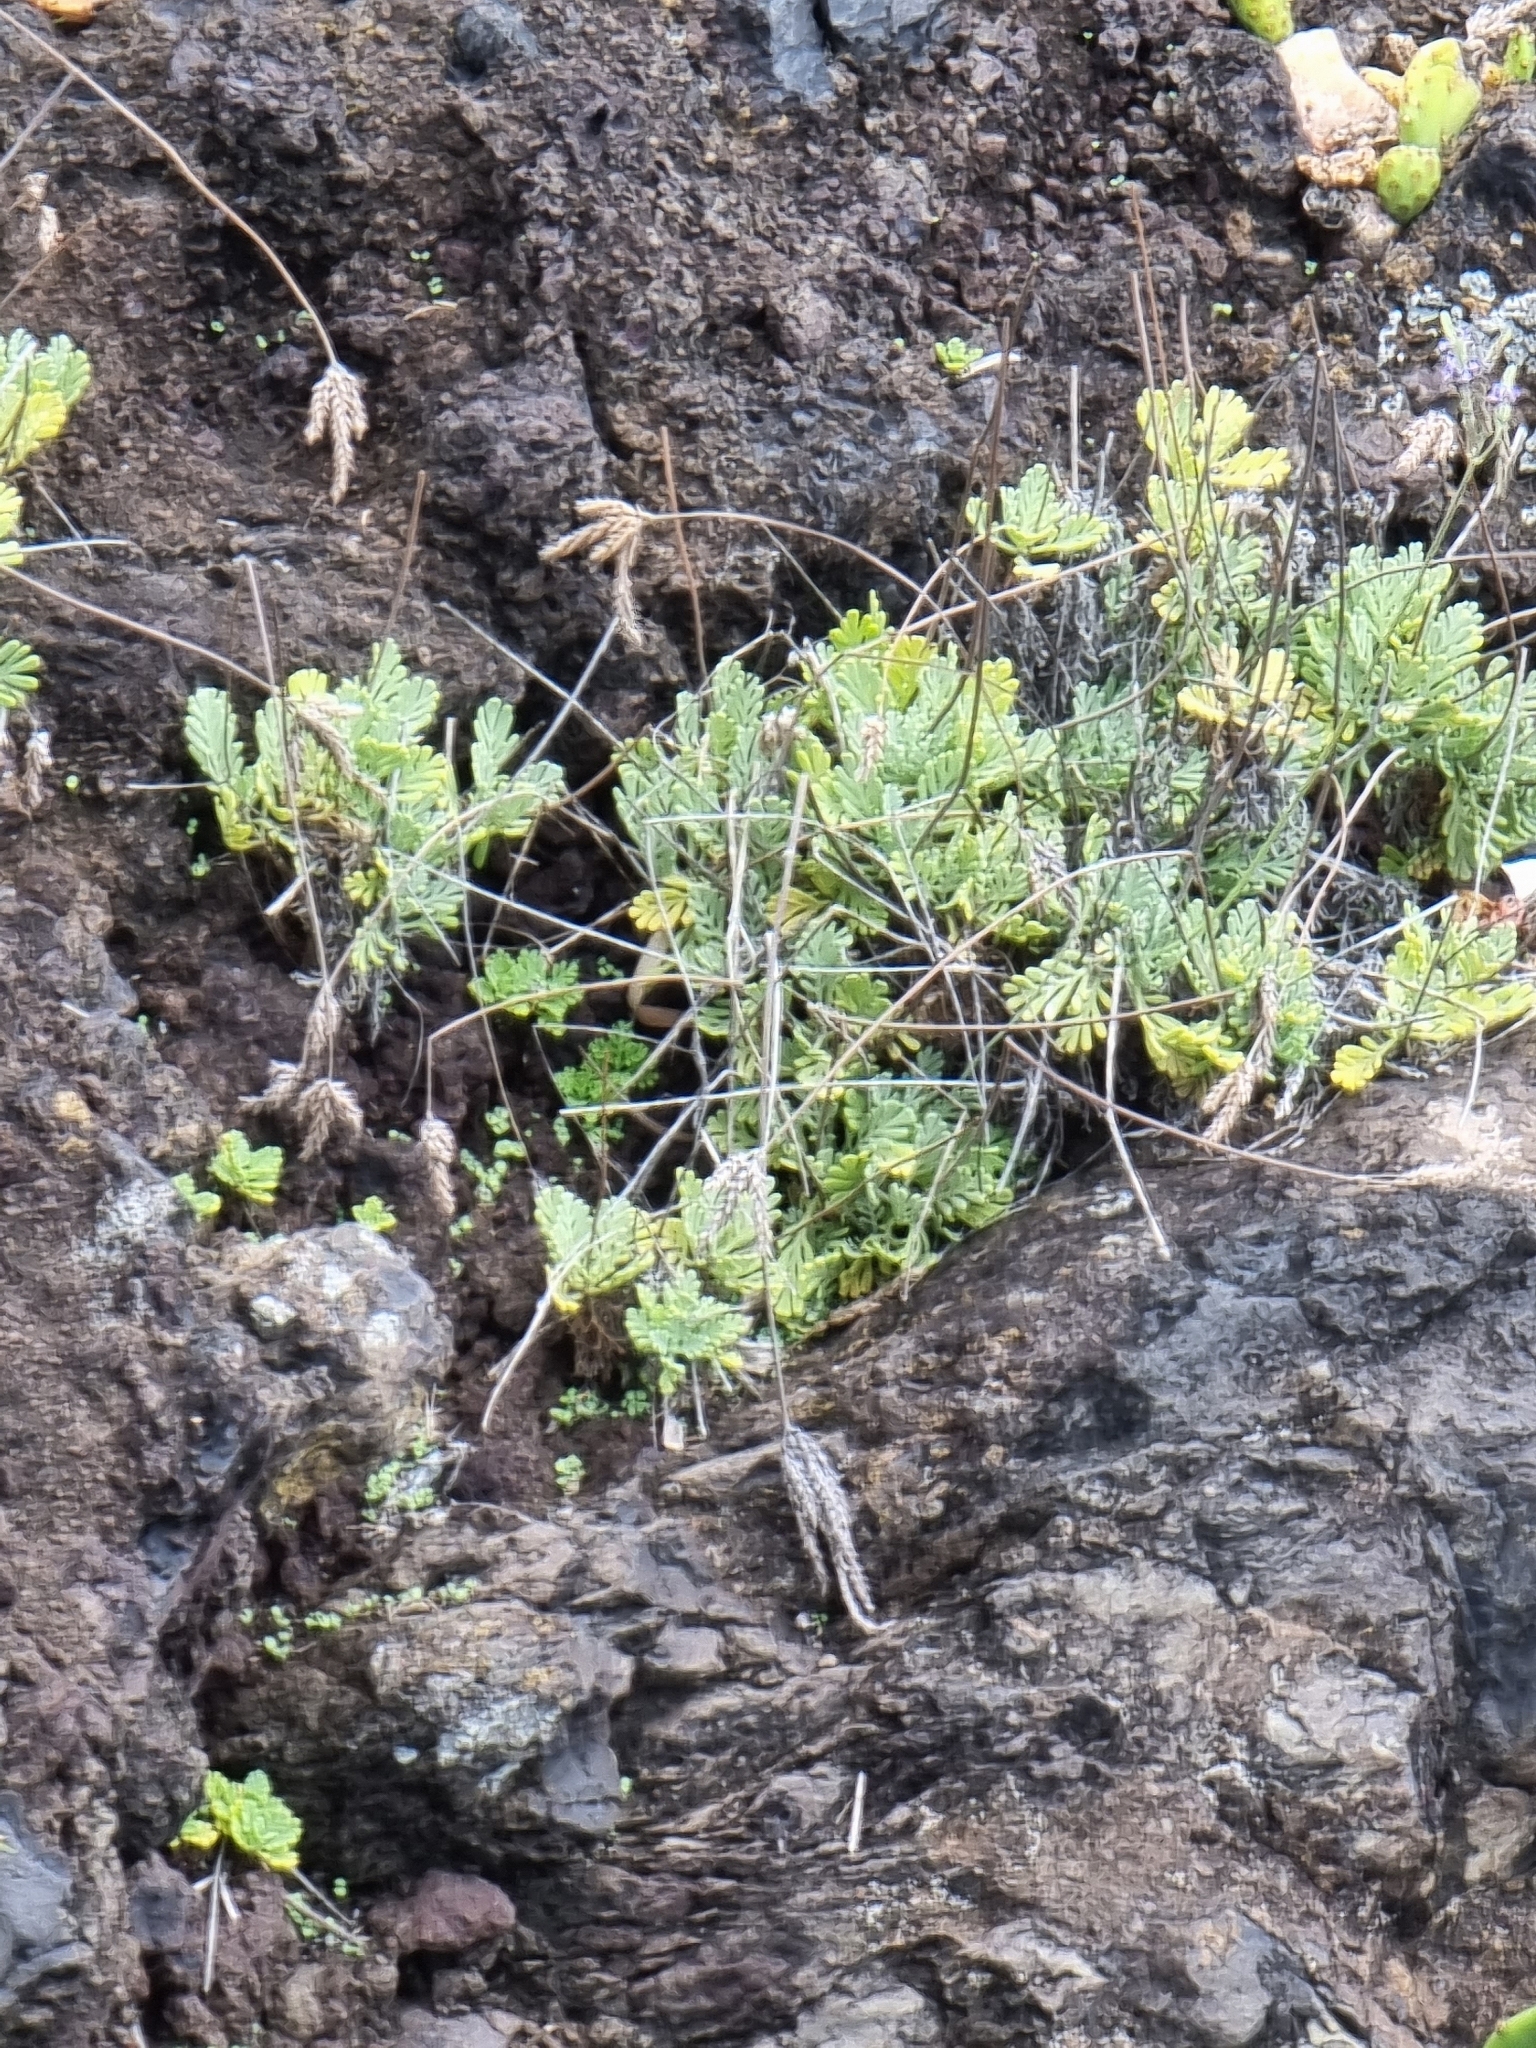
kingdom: Plantae
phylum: Tracheophyta
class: Magnoliopsida
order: Lamiales
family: Lamiaceae
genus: Lavandula
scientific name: Lavandula pinnata
